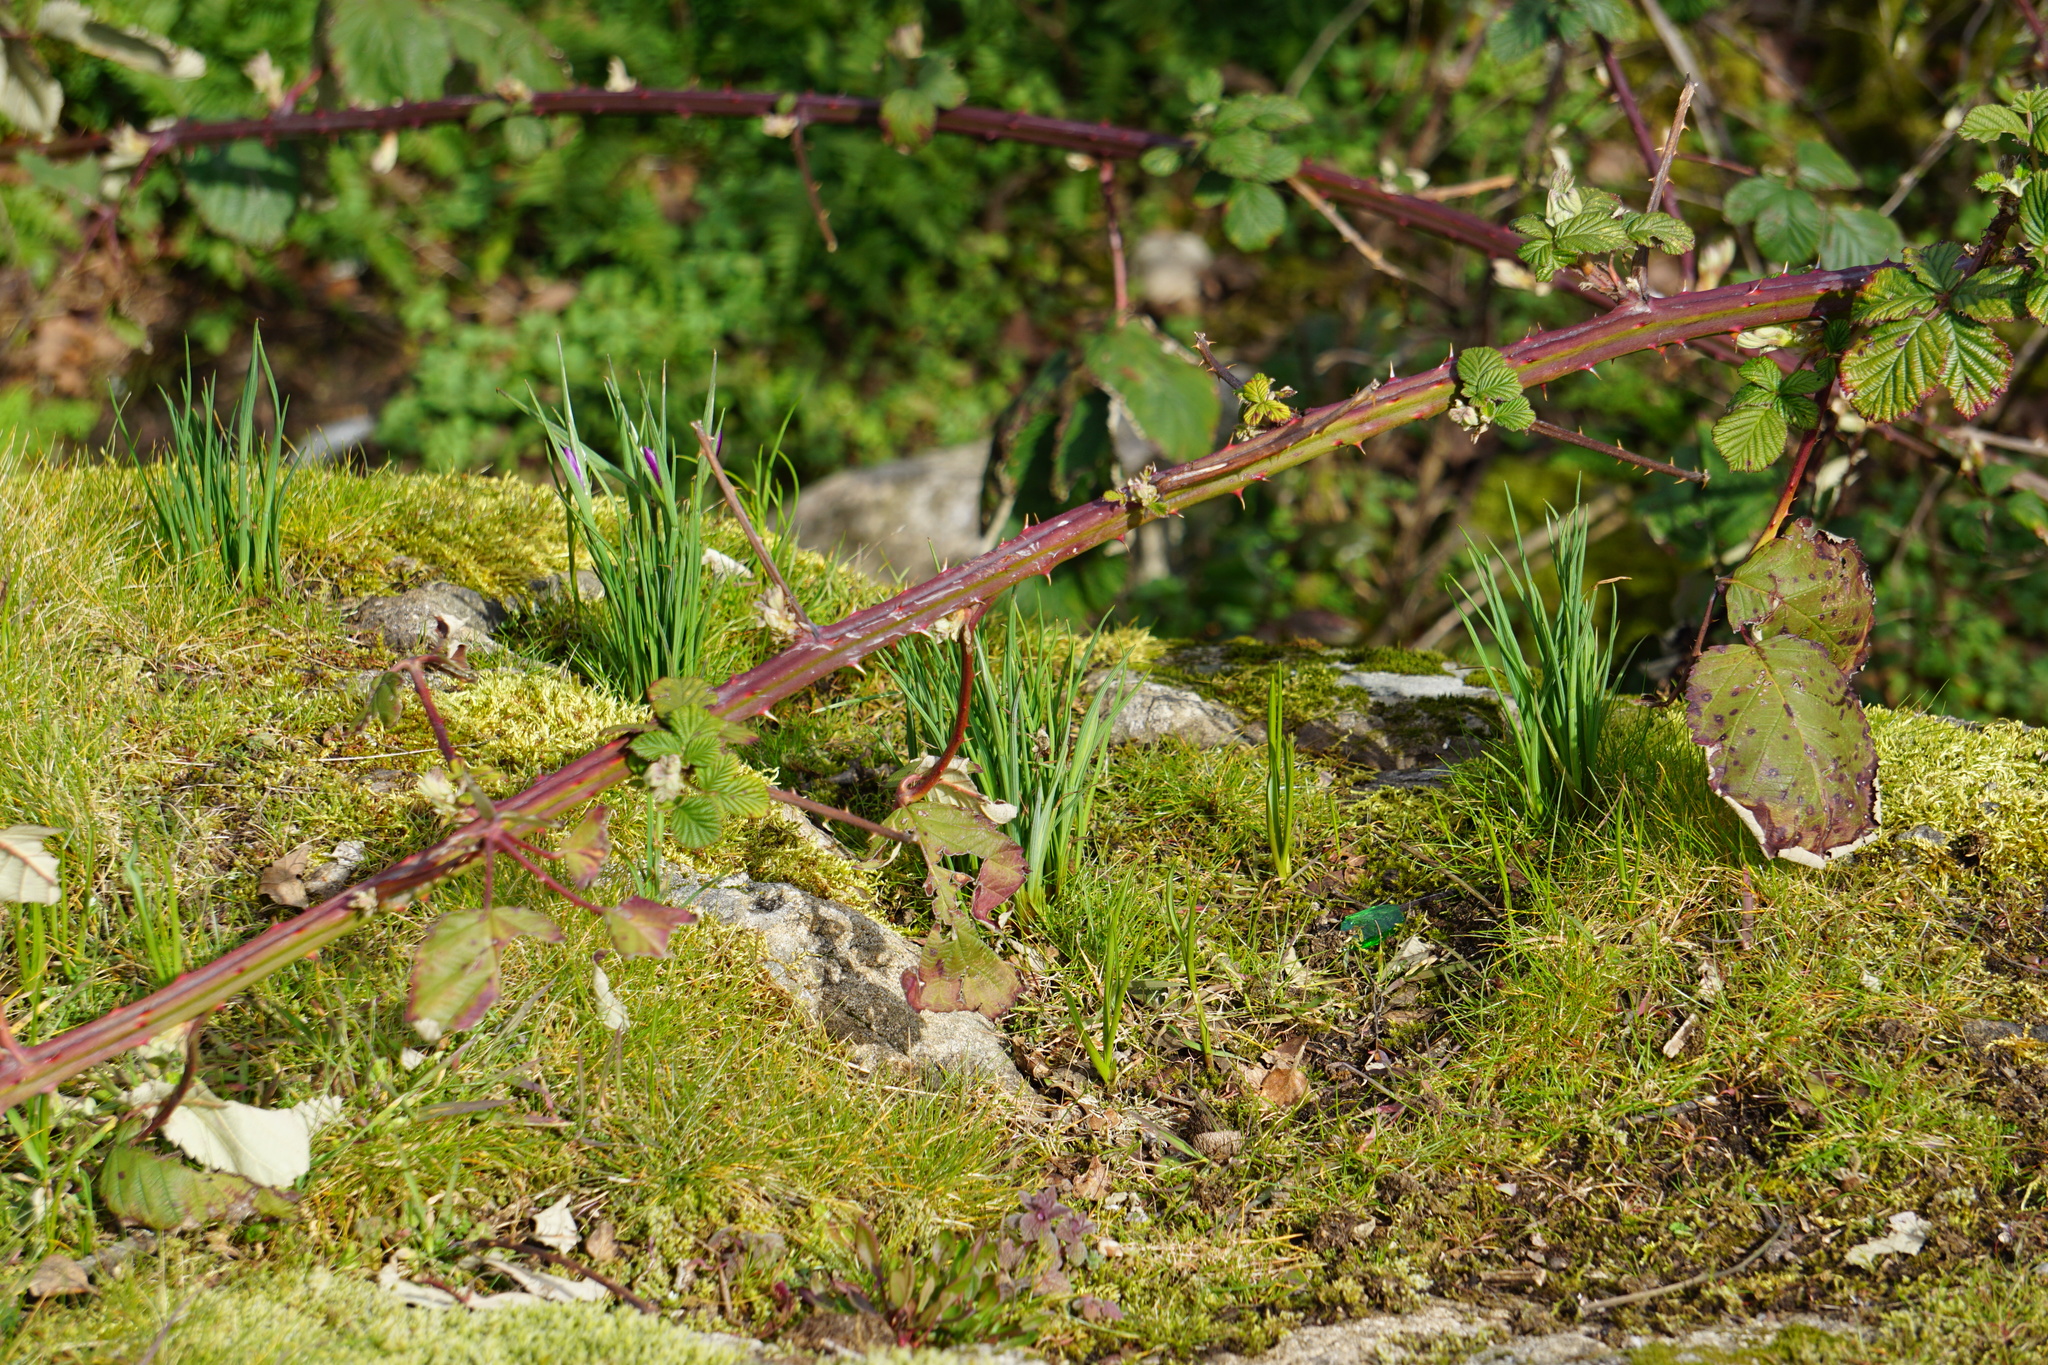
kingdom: Plantae
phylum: Tracheophyta
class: Liliopsida
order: Asparagales
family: Iridaceae
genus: Olsynium
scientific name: Olsynium douglasii
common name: Douglas' grasswidow
